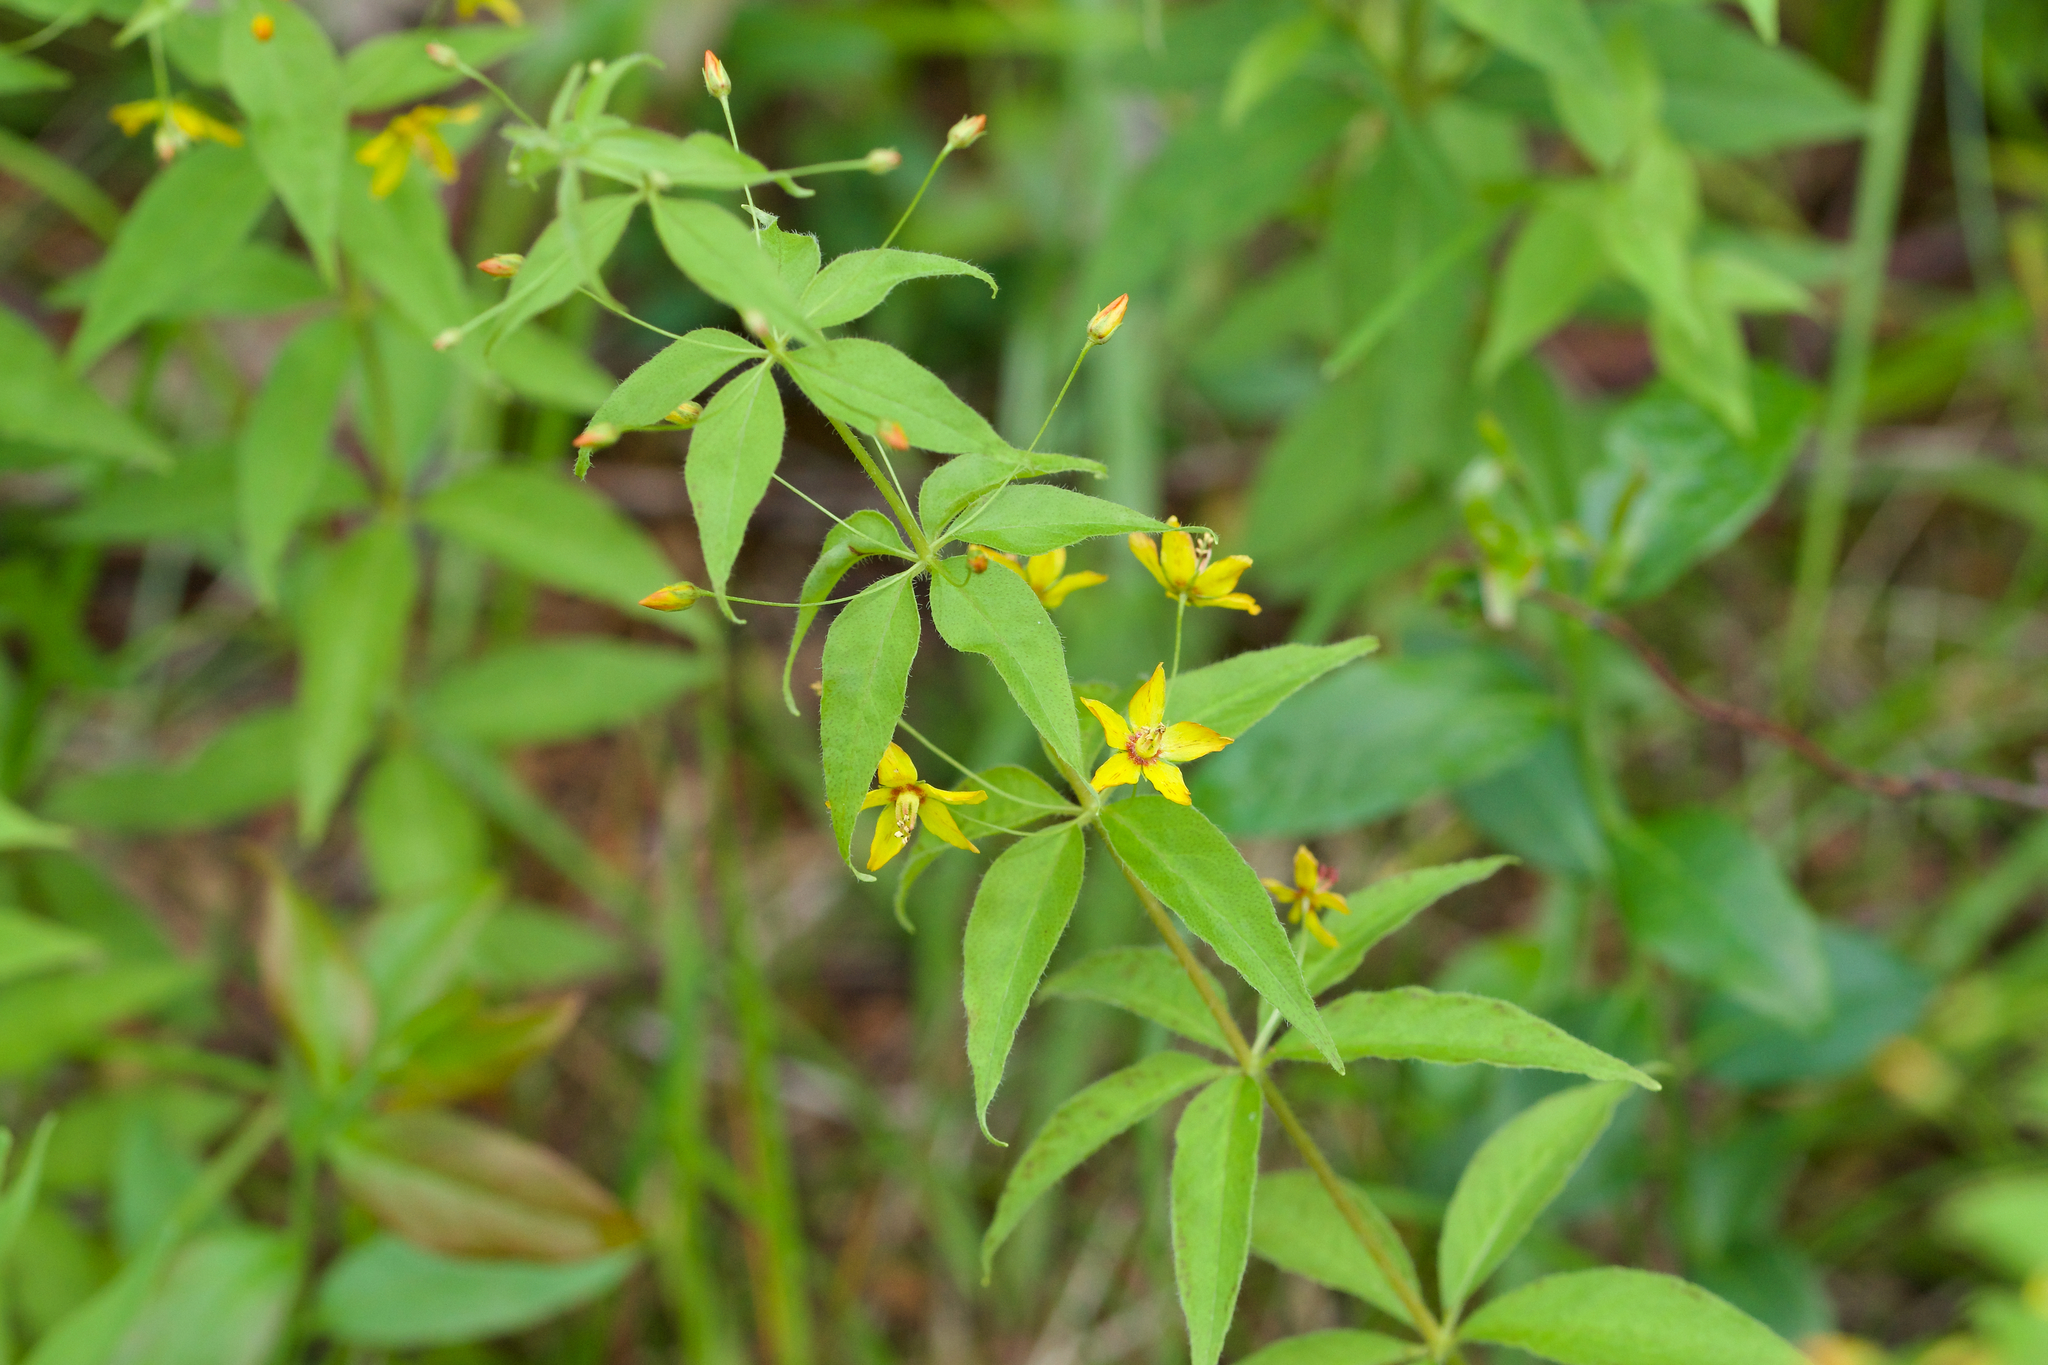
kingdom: Plantae
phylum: Tracheophyta
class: Magnoliopsida
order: Ericales
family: Primulaceae
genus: Lysimachia
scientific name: Lysimachia quadrifolia
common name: Whorled loosestrife
